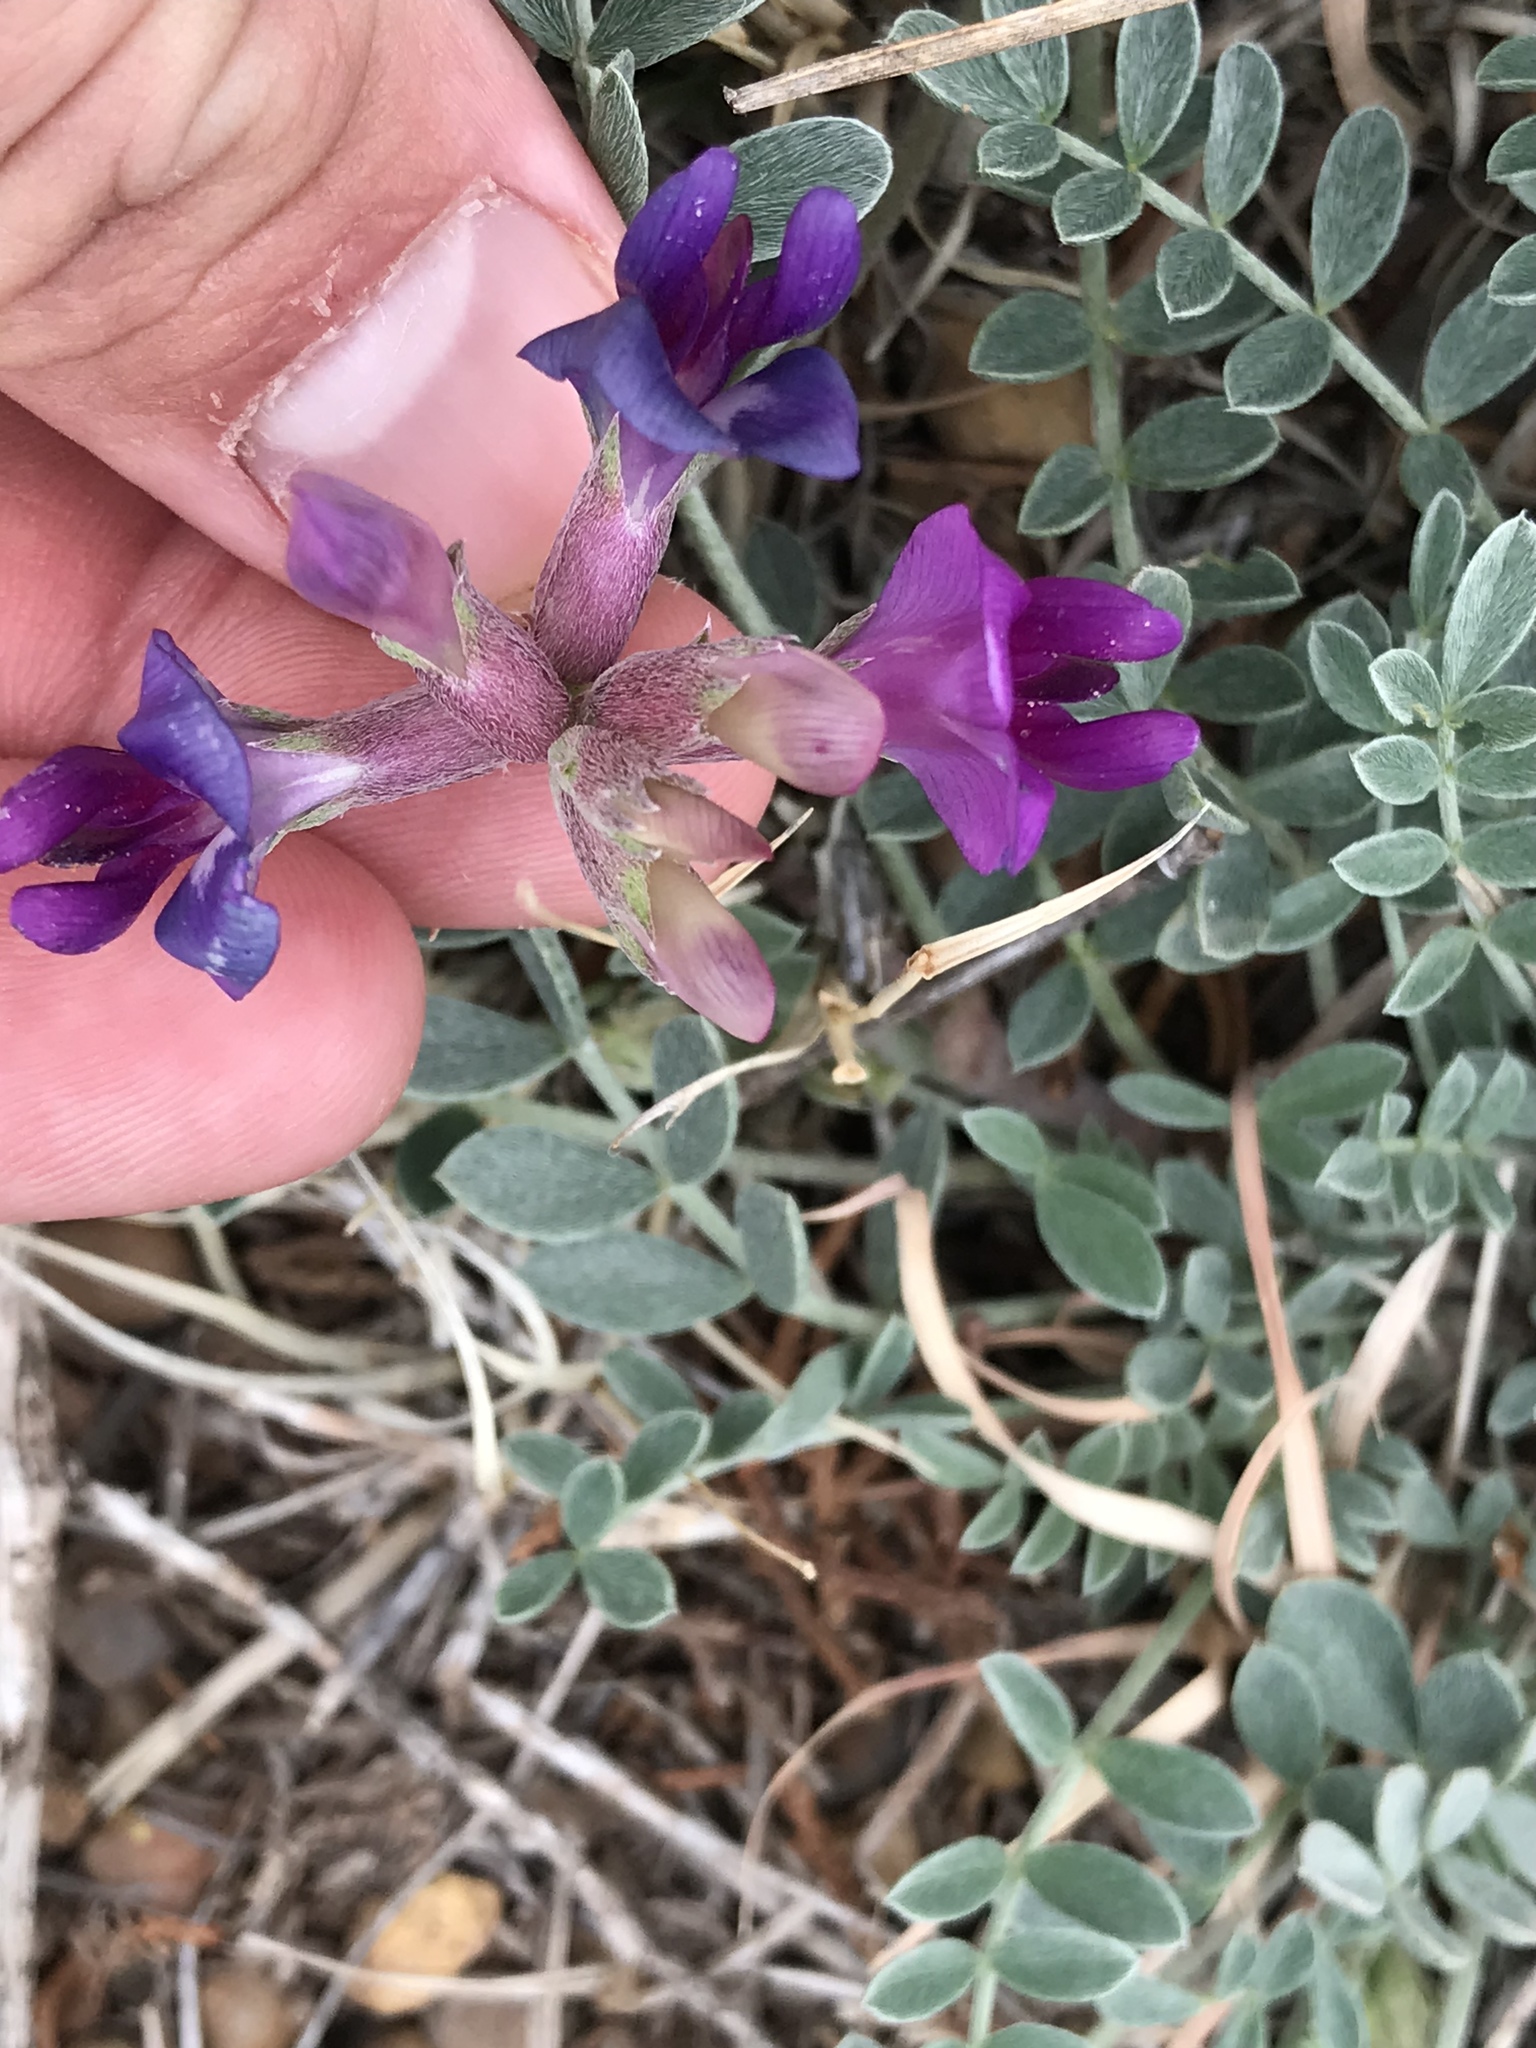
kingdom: Plantae
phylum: Tracheophyta
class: Magnoliopsida
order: Fabales
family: Fabaceae
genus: Astragalus
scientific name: Astragalus missouriensis
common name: Missouri milk-vetch
